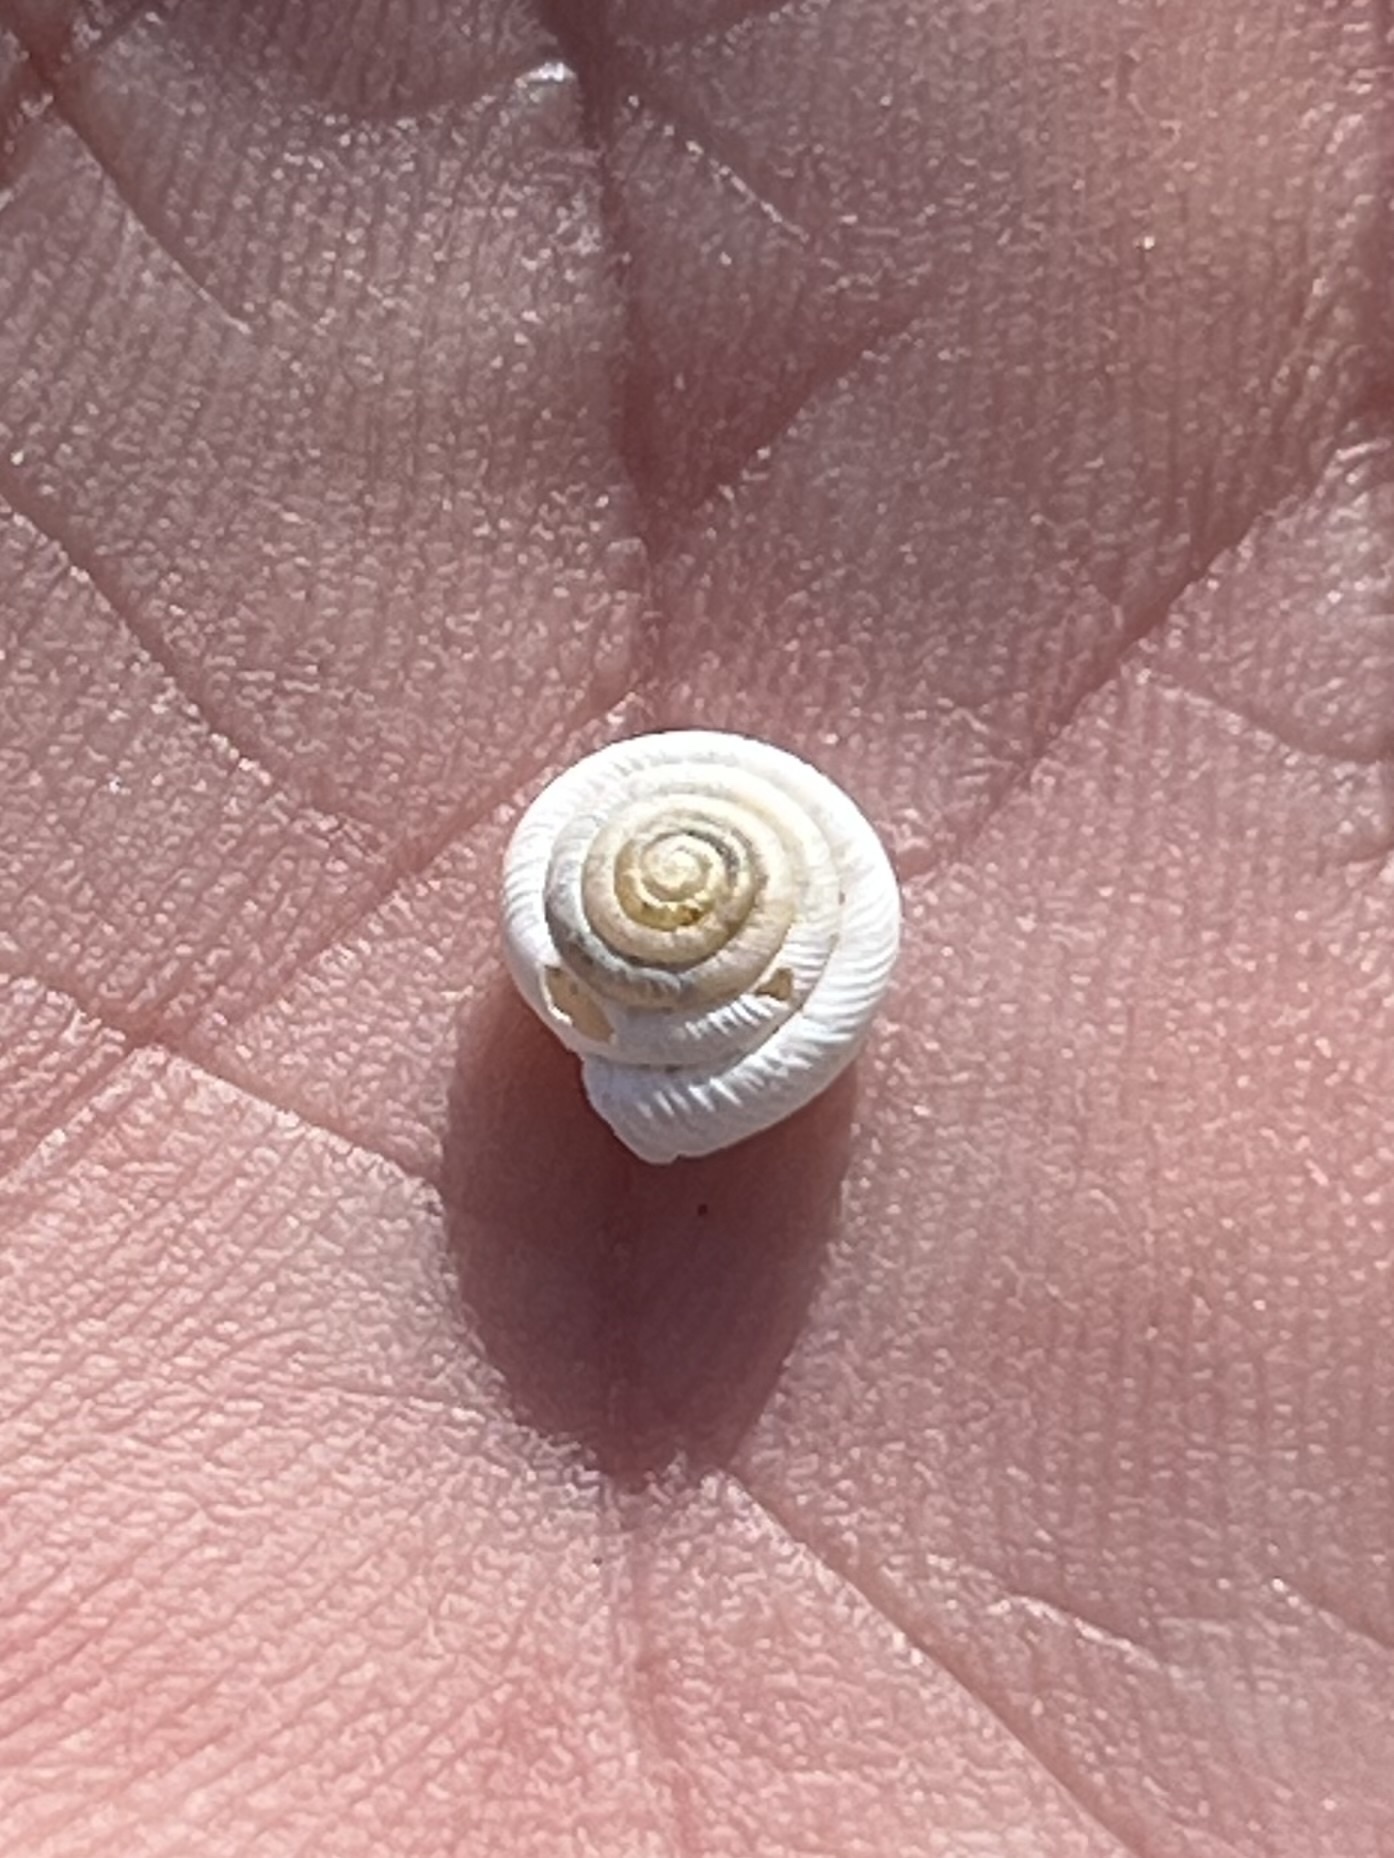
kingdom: Animalia
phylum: Mollusca
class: Gastropoda
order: Stylommatophora
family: Polygyridae
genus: Polygyra
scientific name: Polygyra cereolus
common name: Southern flatcone snail
